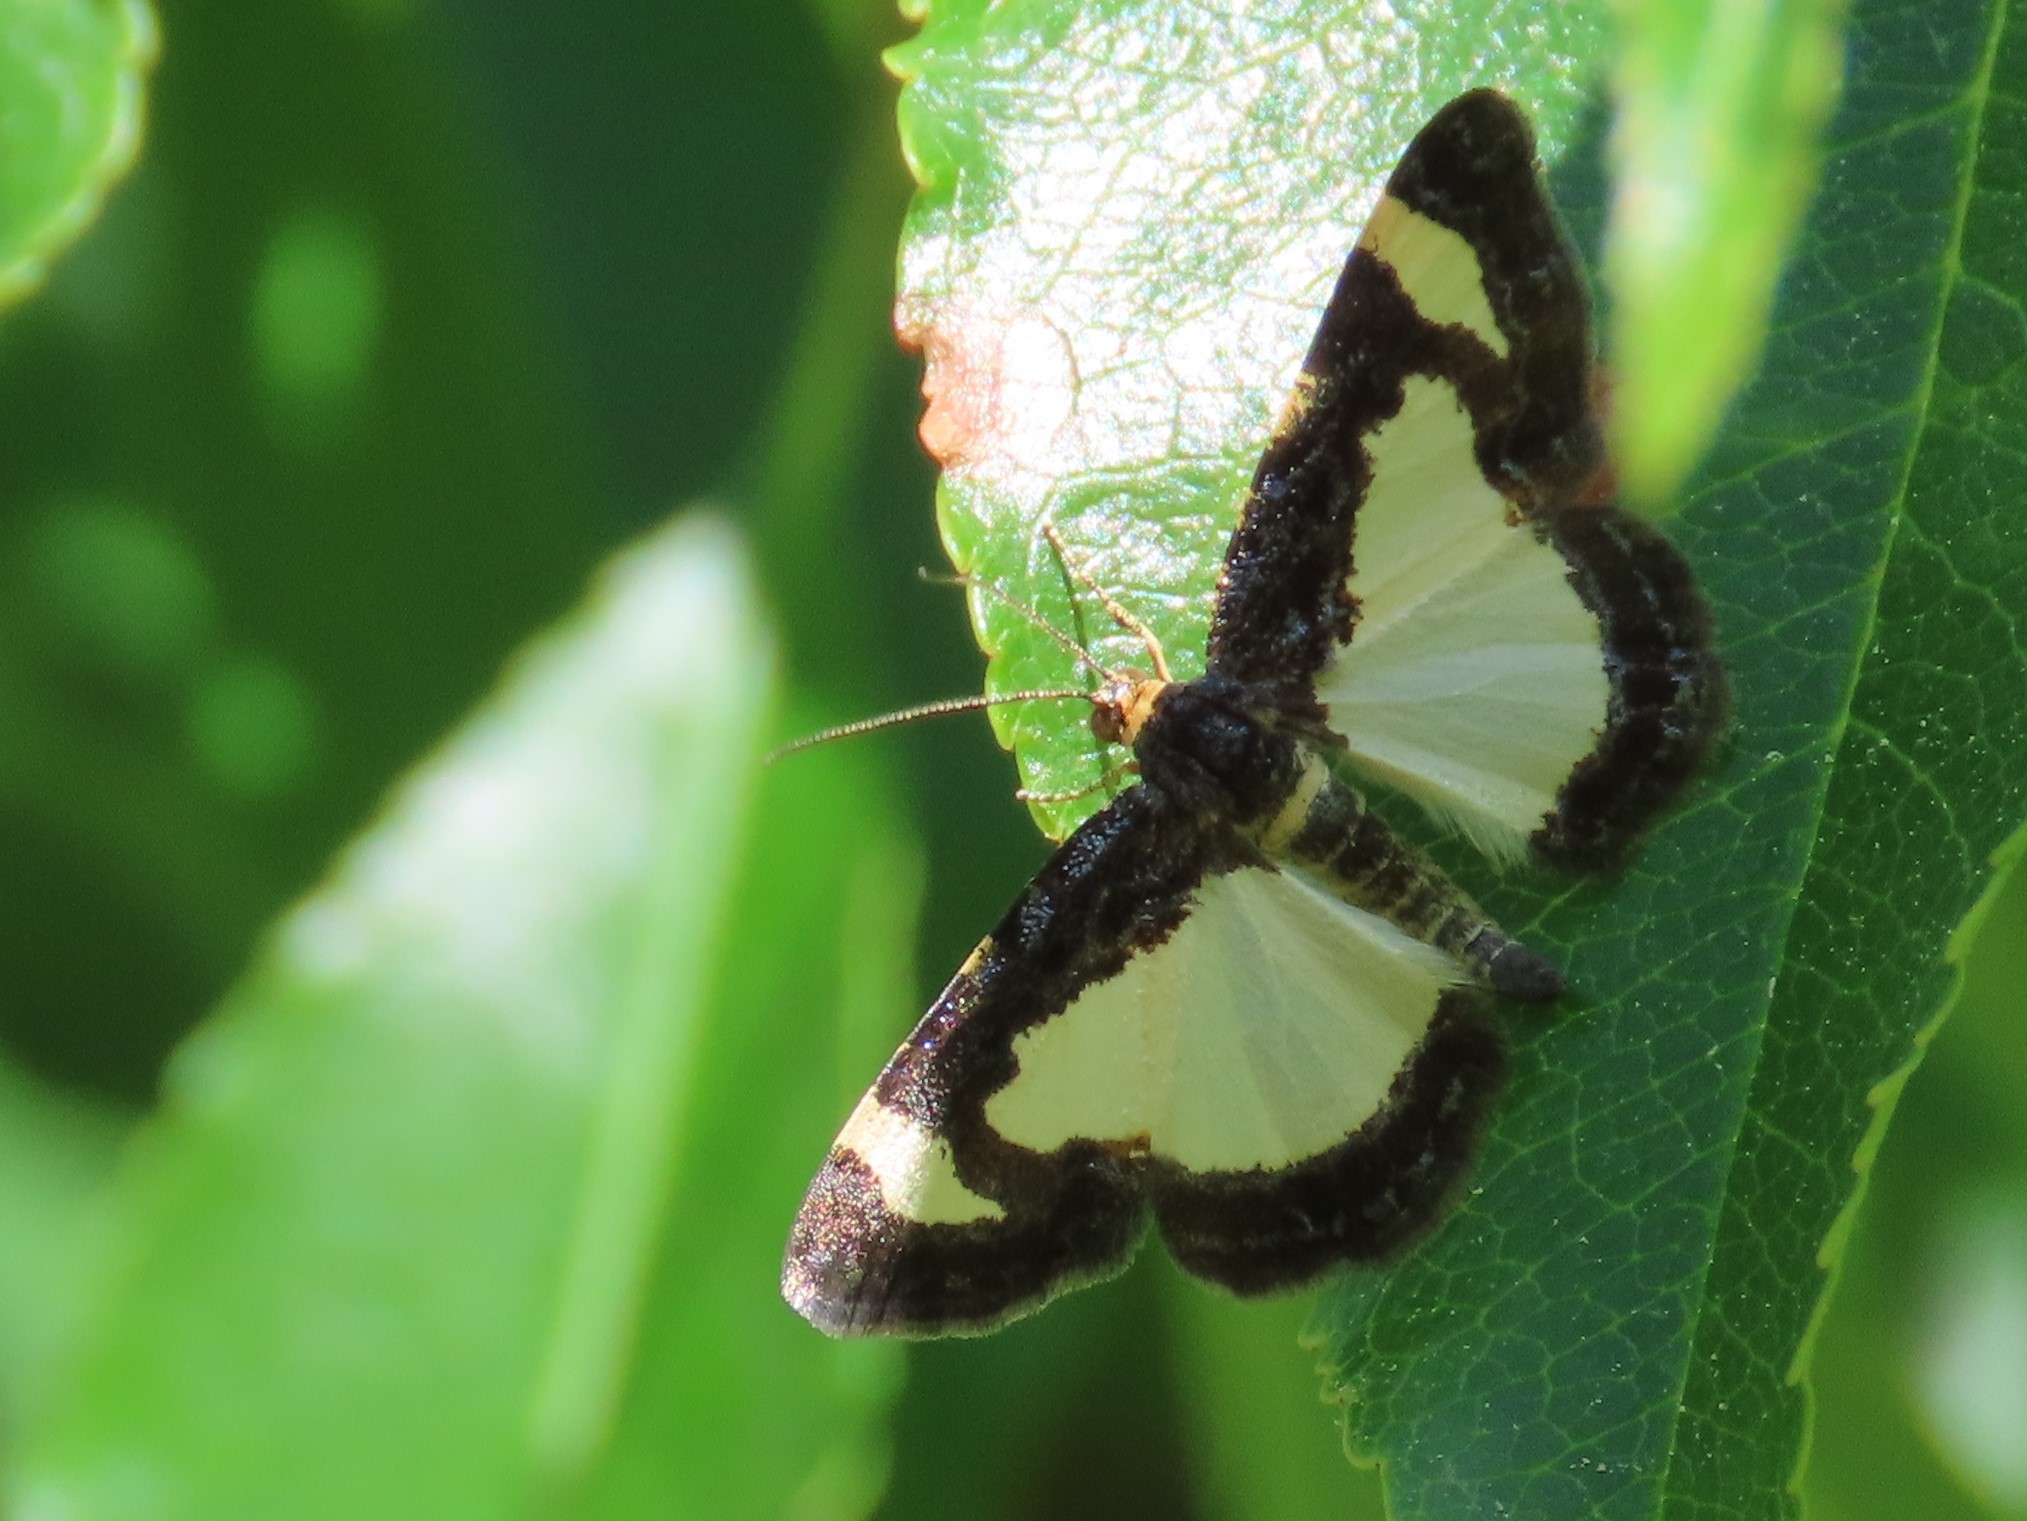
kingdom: Animalia
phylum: Arthropoda
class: Insecta
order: Lepidoptera
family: Geometridae
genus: Heliomata
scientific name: Heliomata cycladata
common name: Common spring moth
